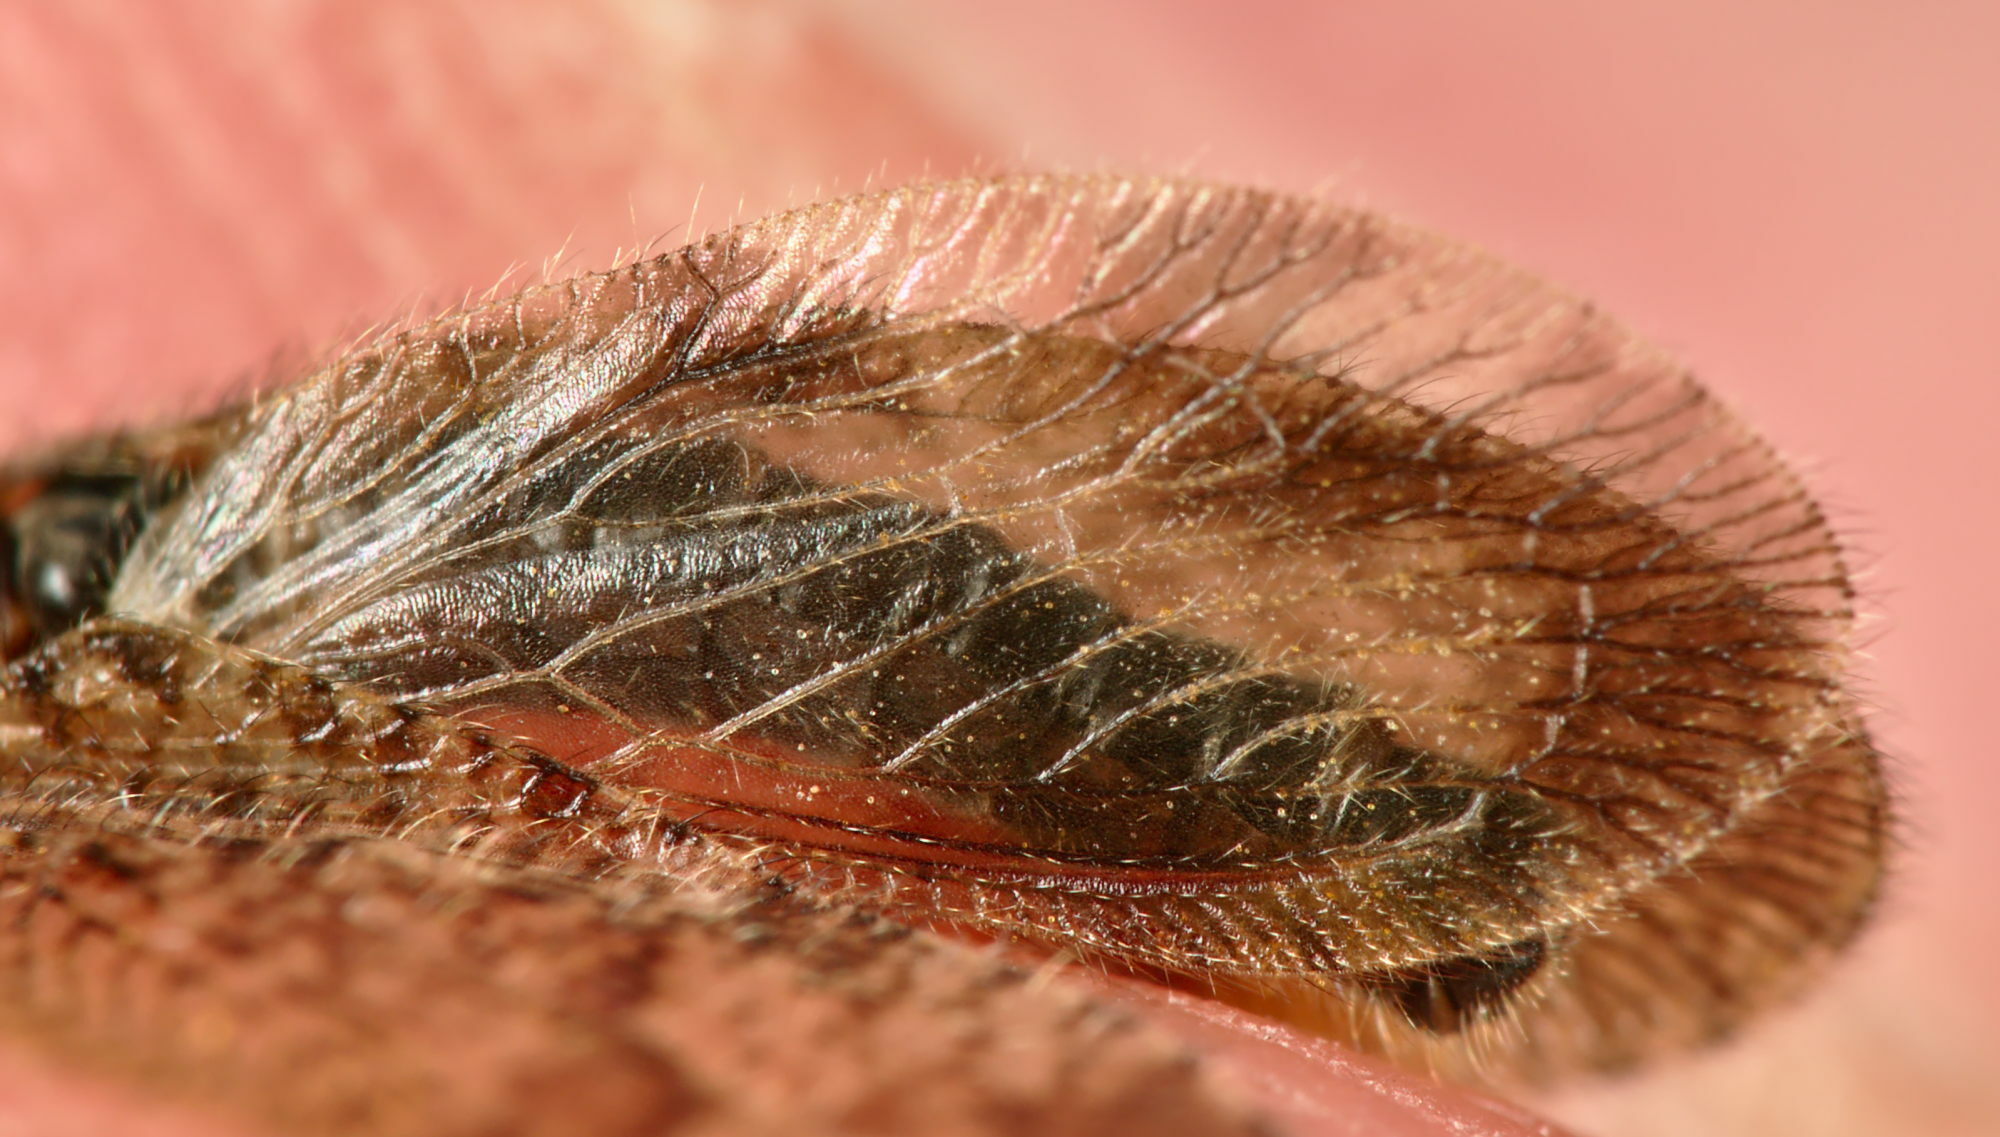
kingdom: Animalia
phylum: Arthropoda
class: Insecta
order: Neuroptera
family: Hemerobiidae
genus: Megalomus
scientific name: Megalomus tortricoides
